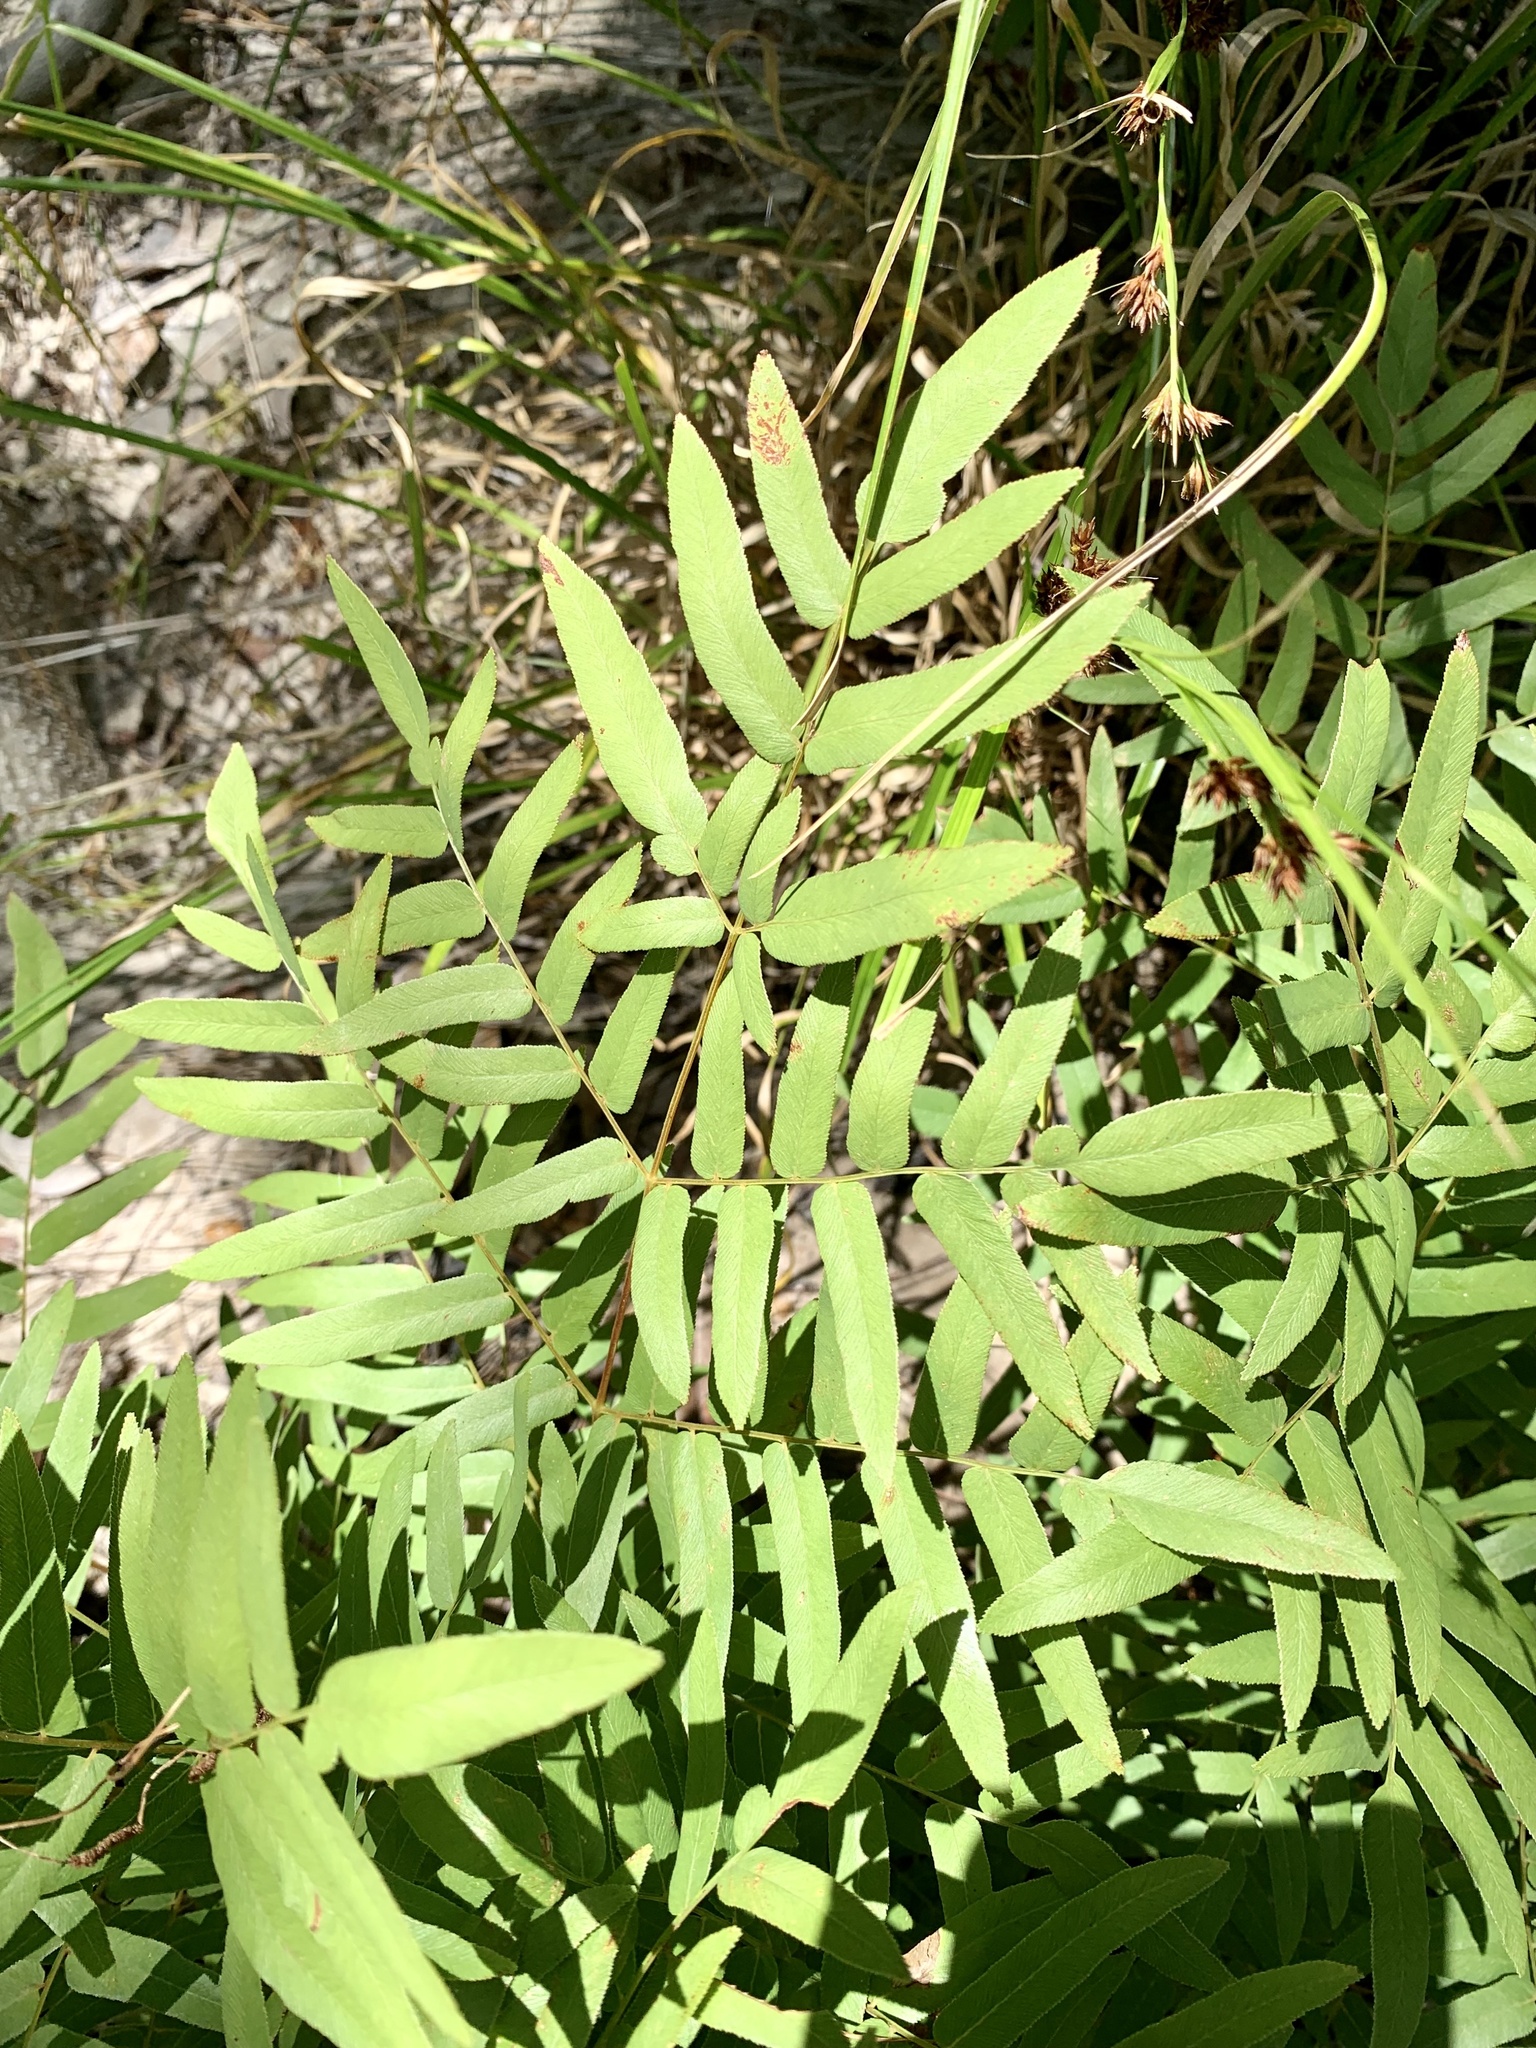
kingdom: Plantae
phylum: Tracheophyta
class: Polypodiopsida
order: Osmundales
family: Osmundaceae
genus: Osmunda
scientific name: Osmunda spectabilis
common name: American royal fern
